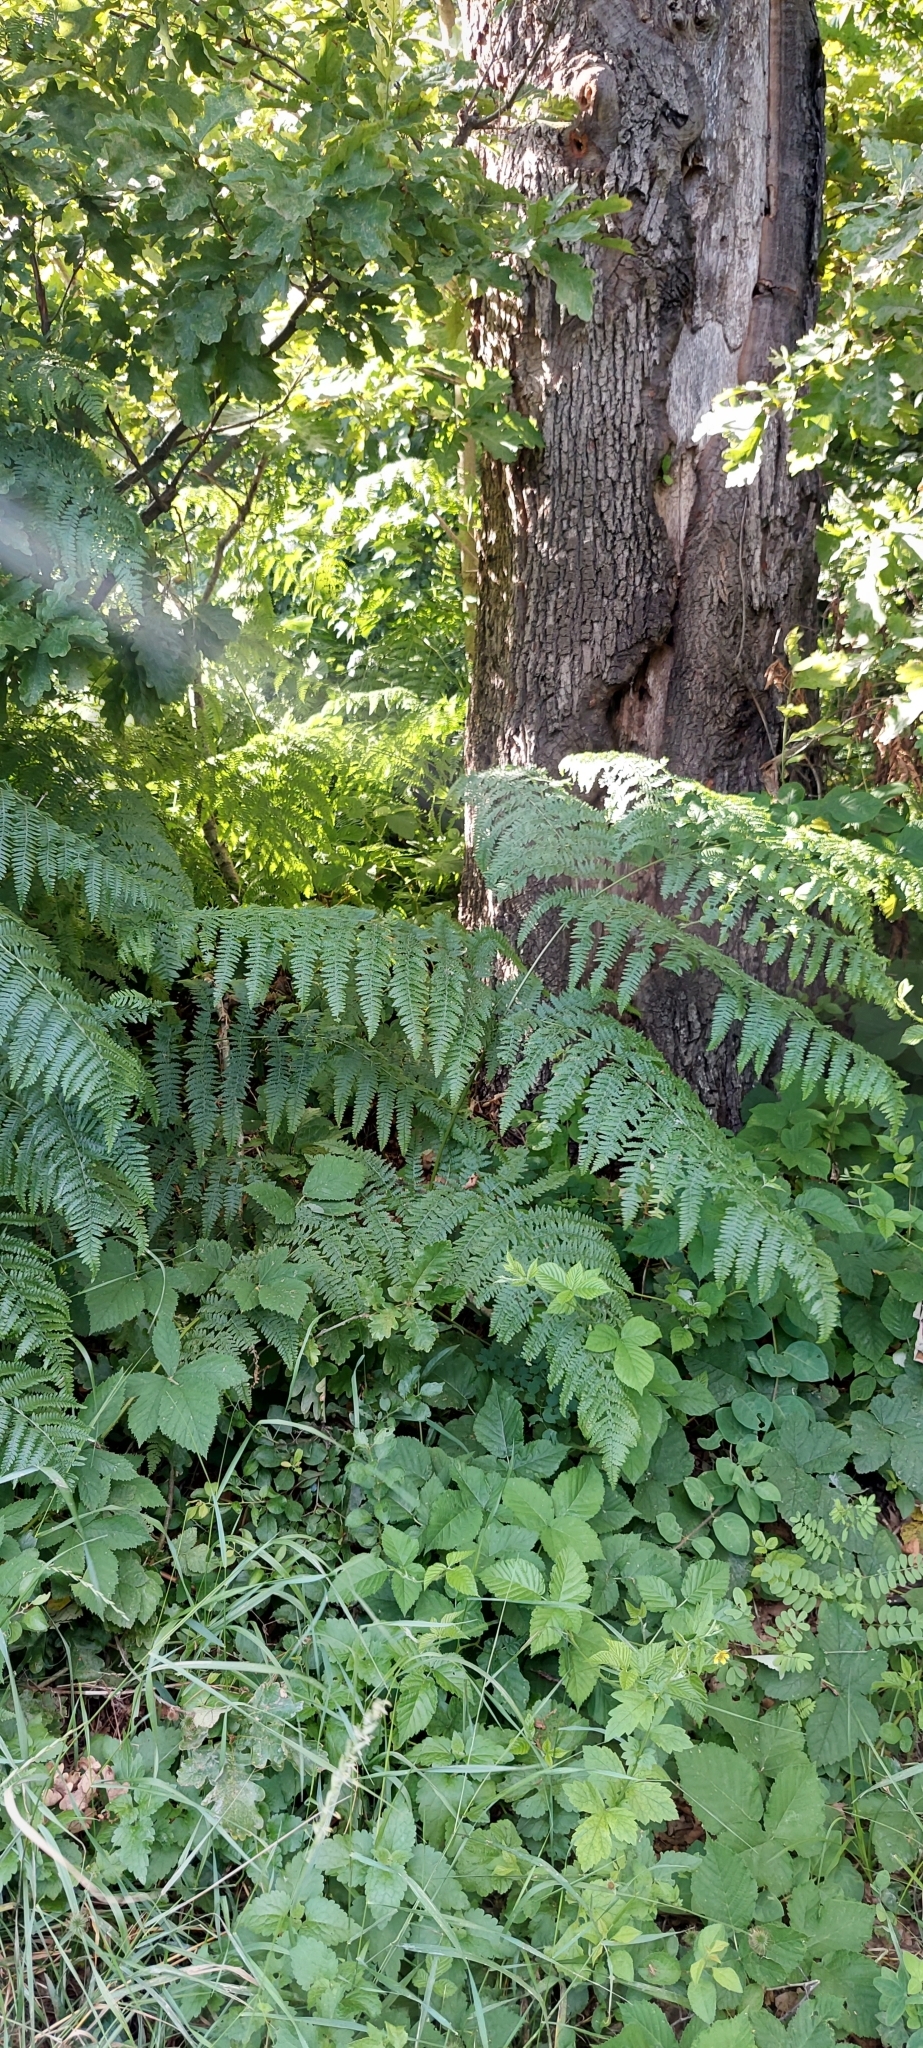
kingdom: Plantae
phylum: Tracheophyta
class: Polypodiopsida
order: Polypodiales
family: Dennstaedtiaceae
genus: Pteridium
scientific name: Pteridium tauricum
